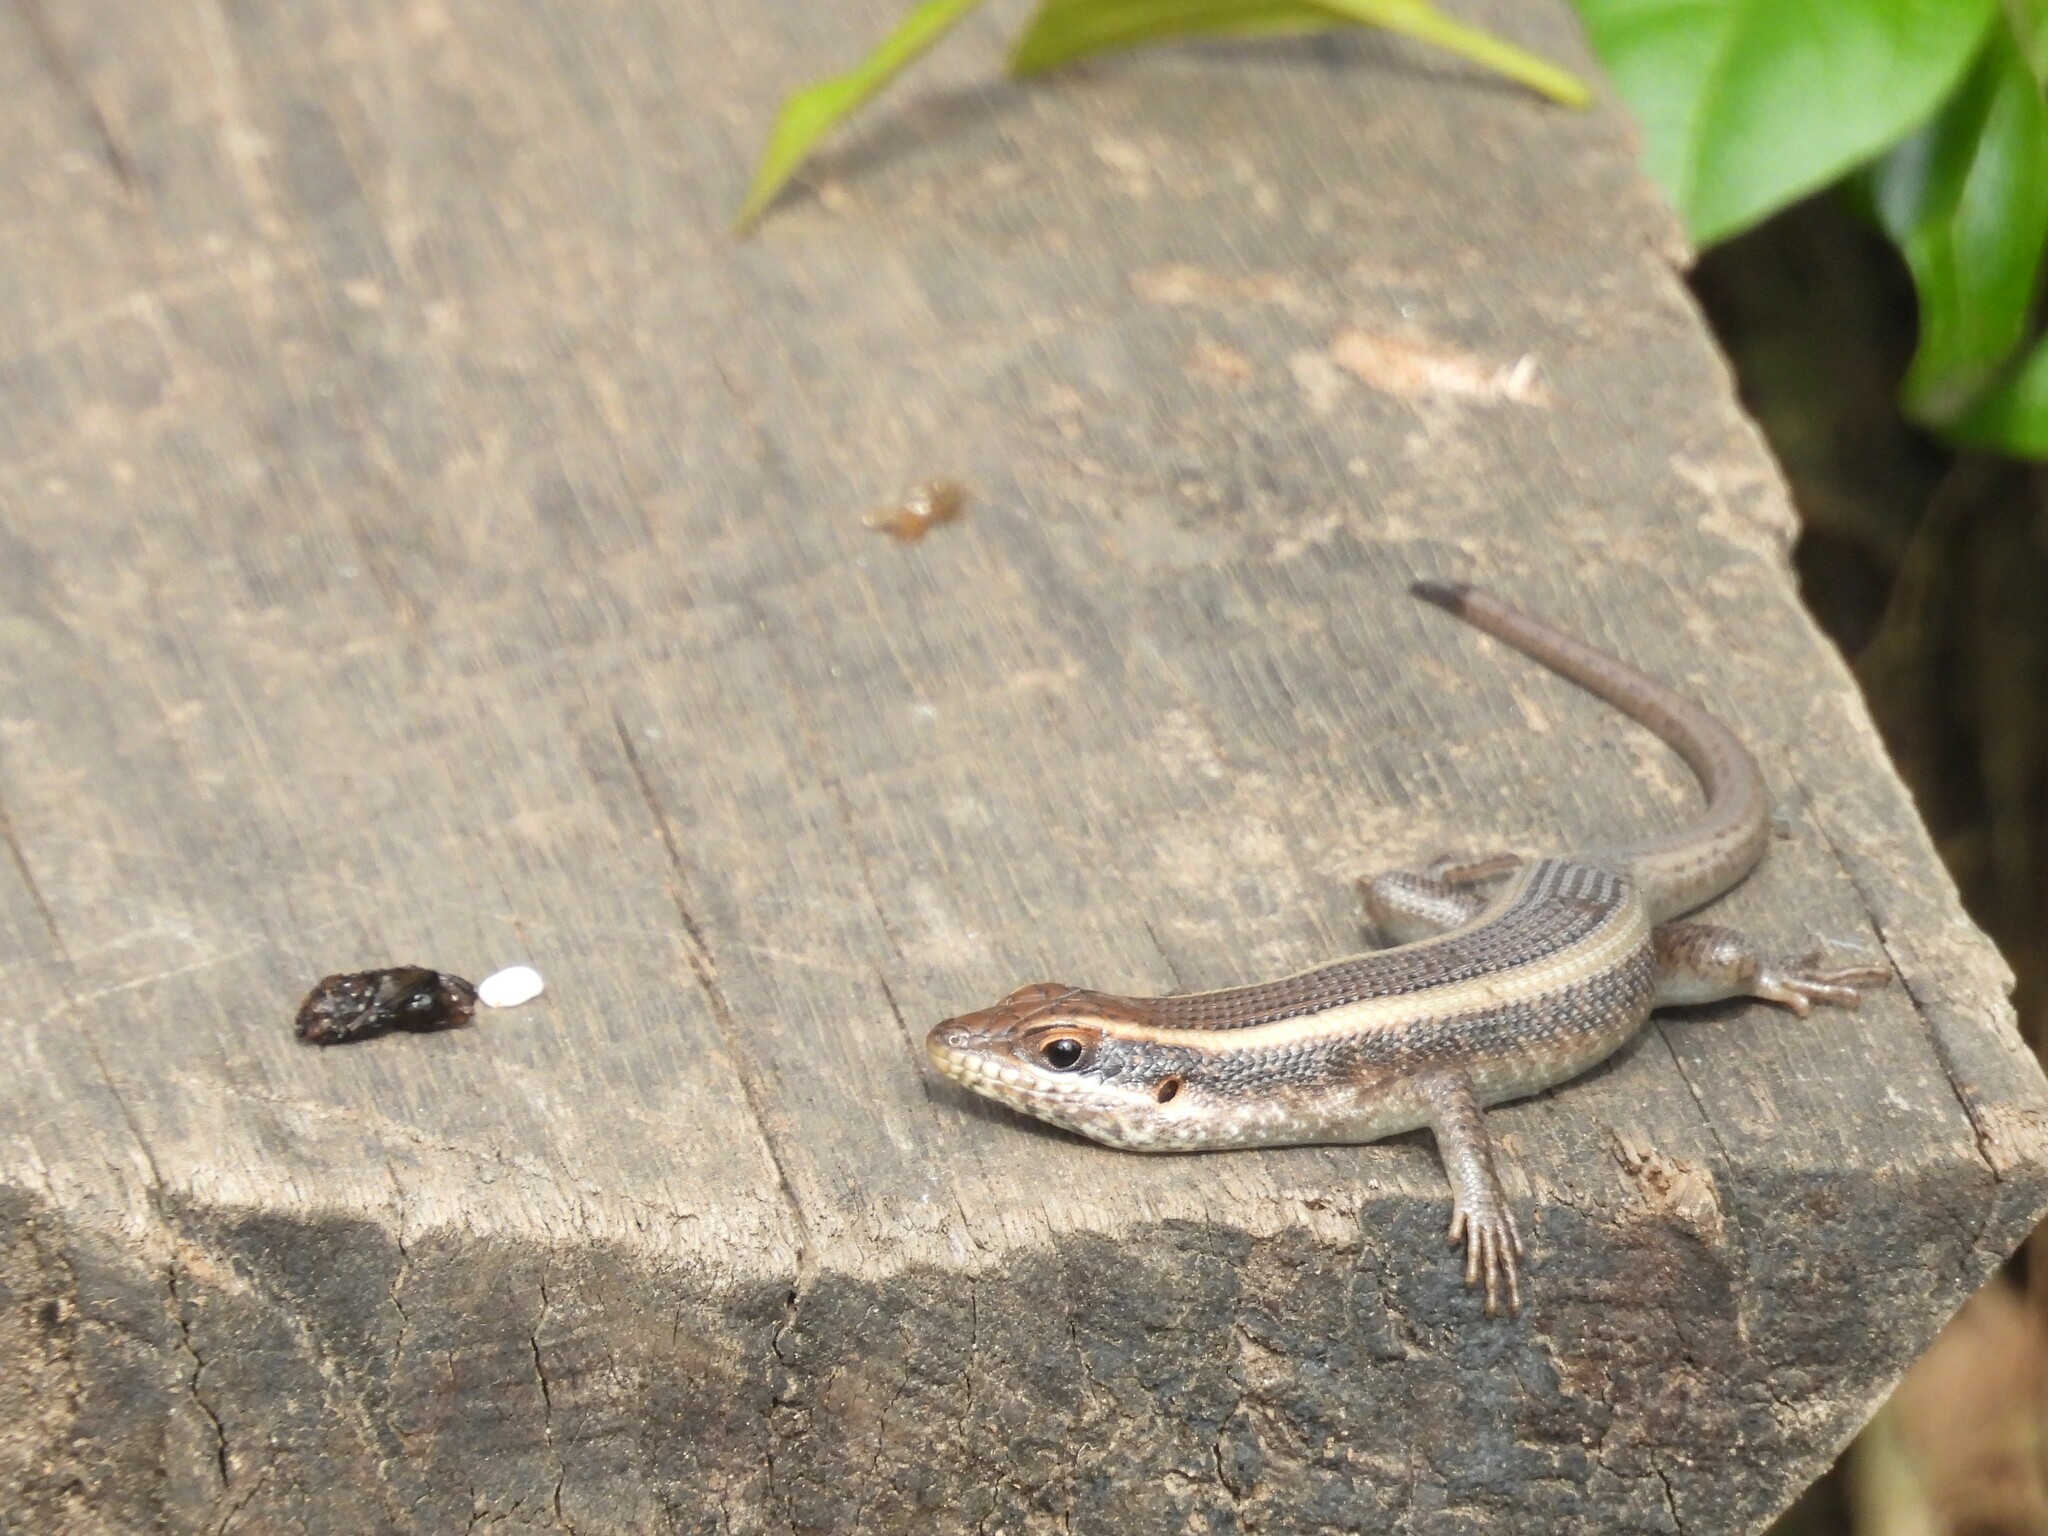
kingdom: Animalia
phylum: Chordata
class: Squamata
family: Scincidae
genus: Trachylepis
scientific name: Trachylepis striata
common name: African striped mabuya
